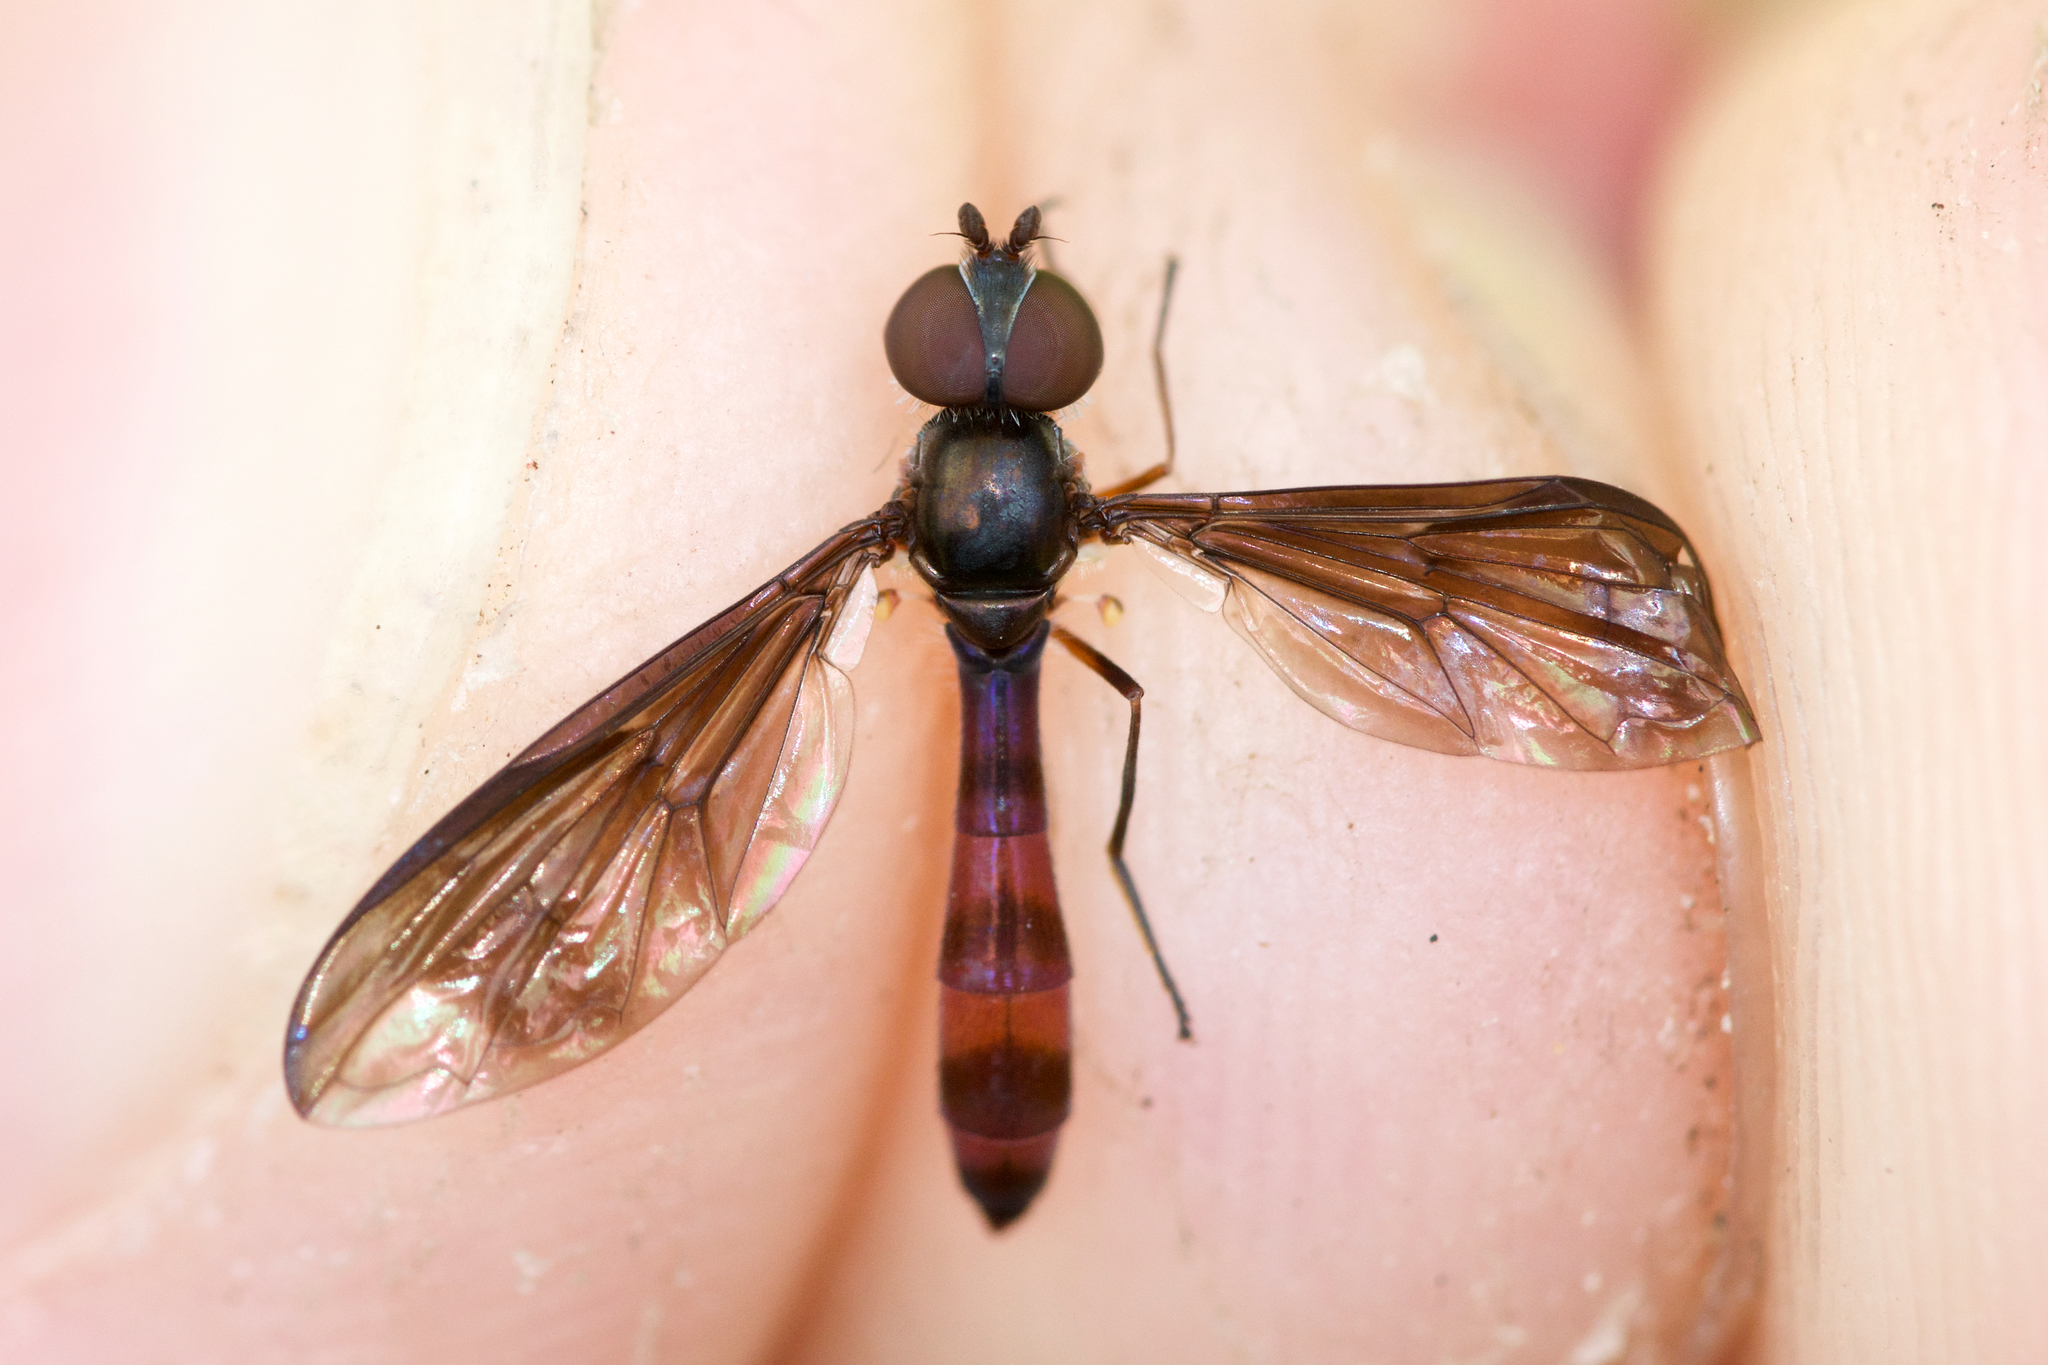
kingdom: Animalia
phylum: Arthropoda
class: Insecta
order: Diptera
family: Syrphidae
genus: Ocyptamus
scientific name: Ocyptamus fuscipennis
